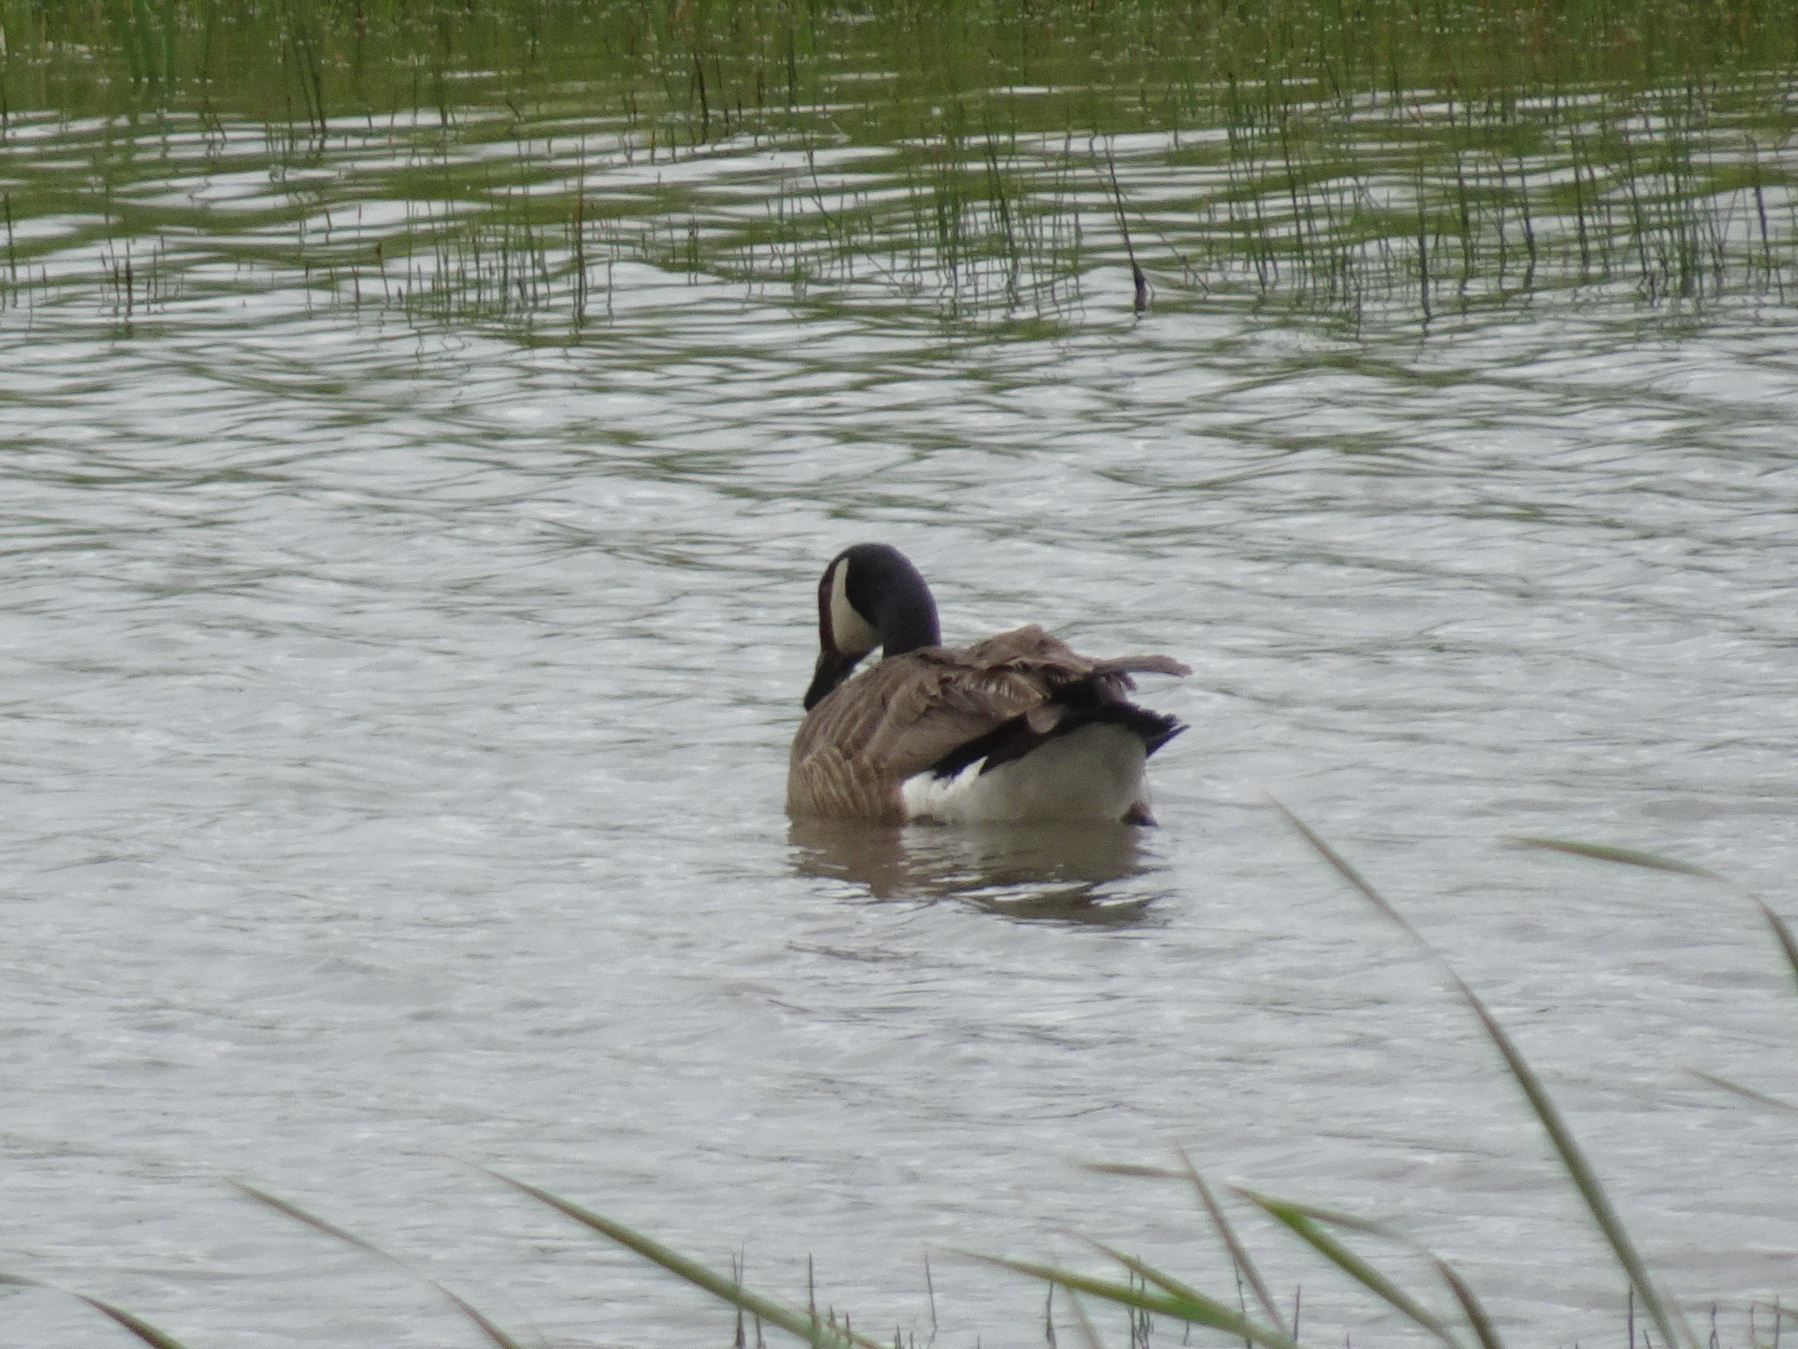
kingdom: Animalia
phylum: Chordata
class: Aves
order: Anseriformes
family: Anatidae
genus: Branta
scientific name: Branta canadensis
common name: Canada goose
